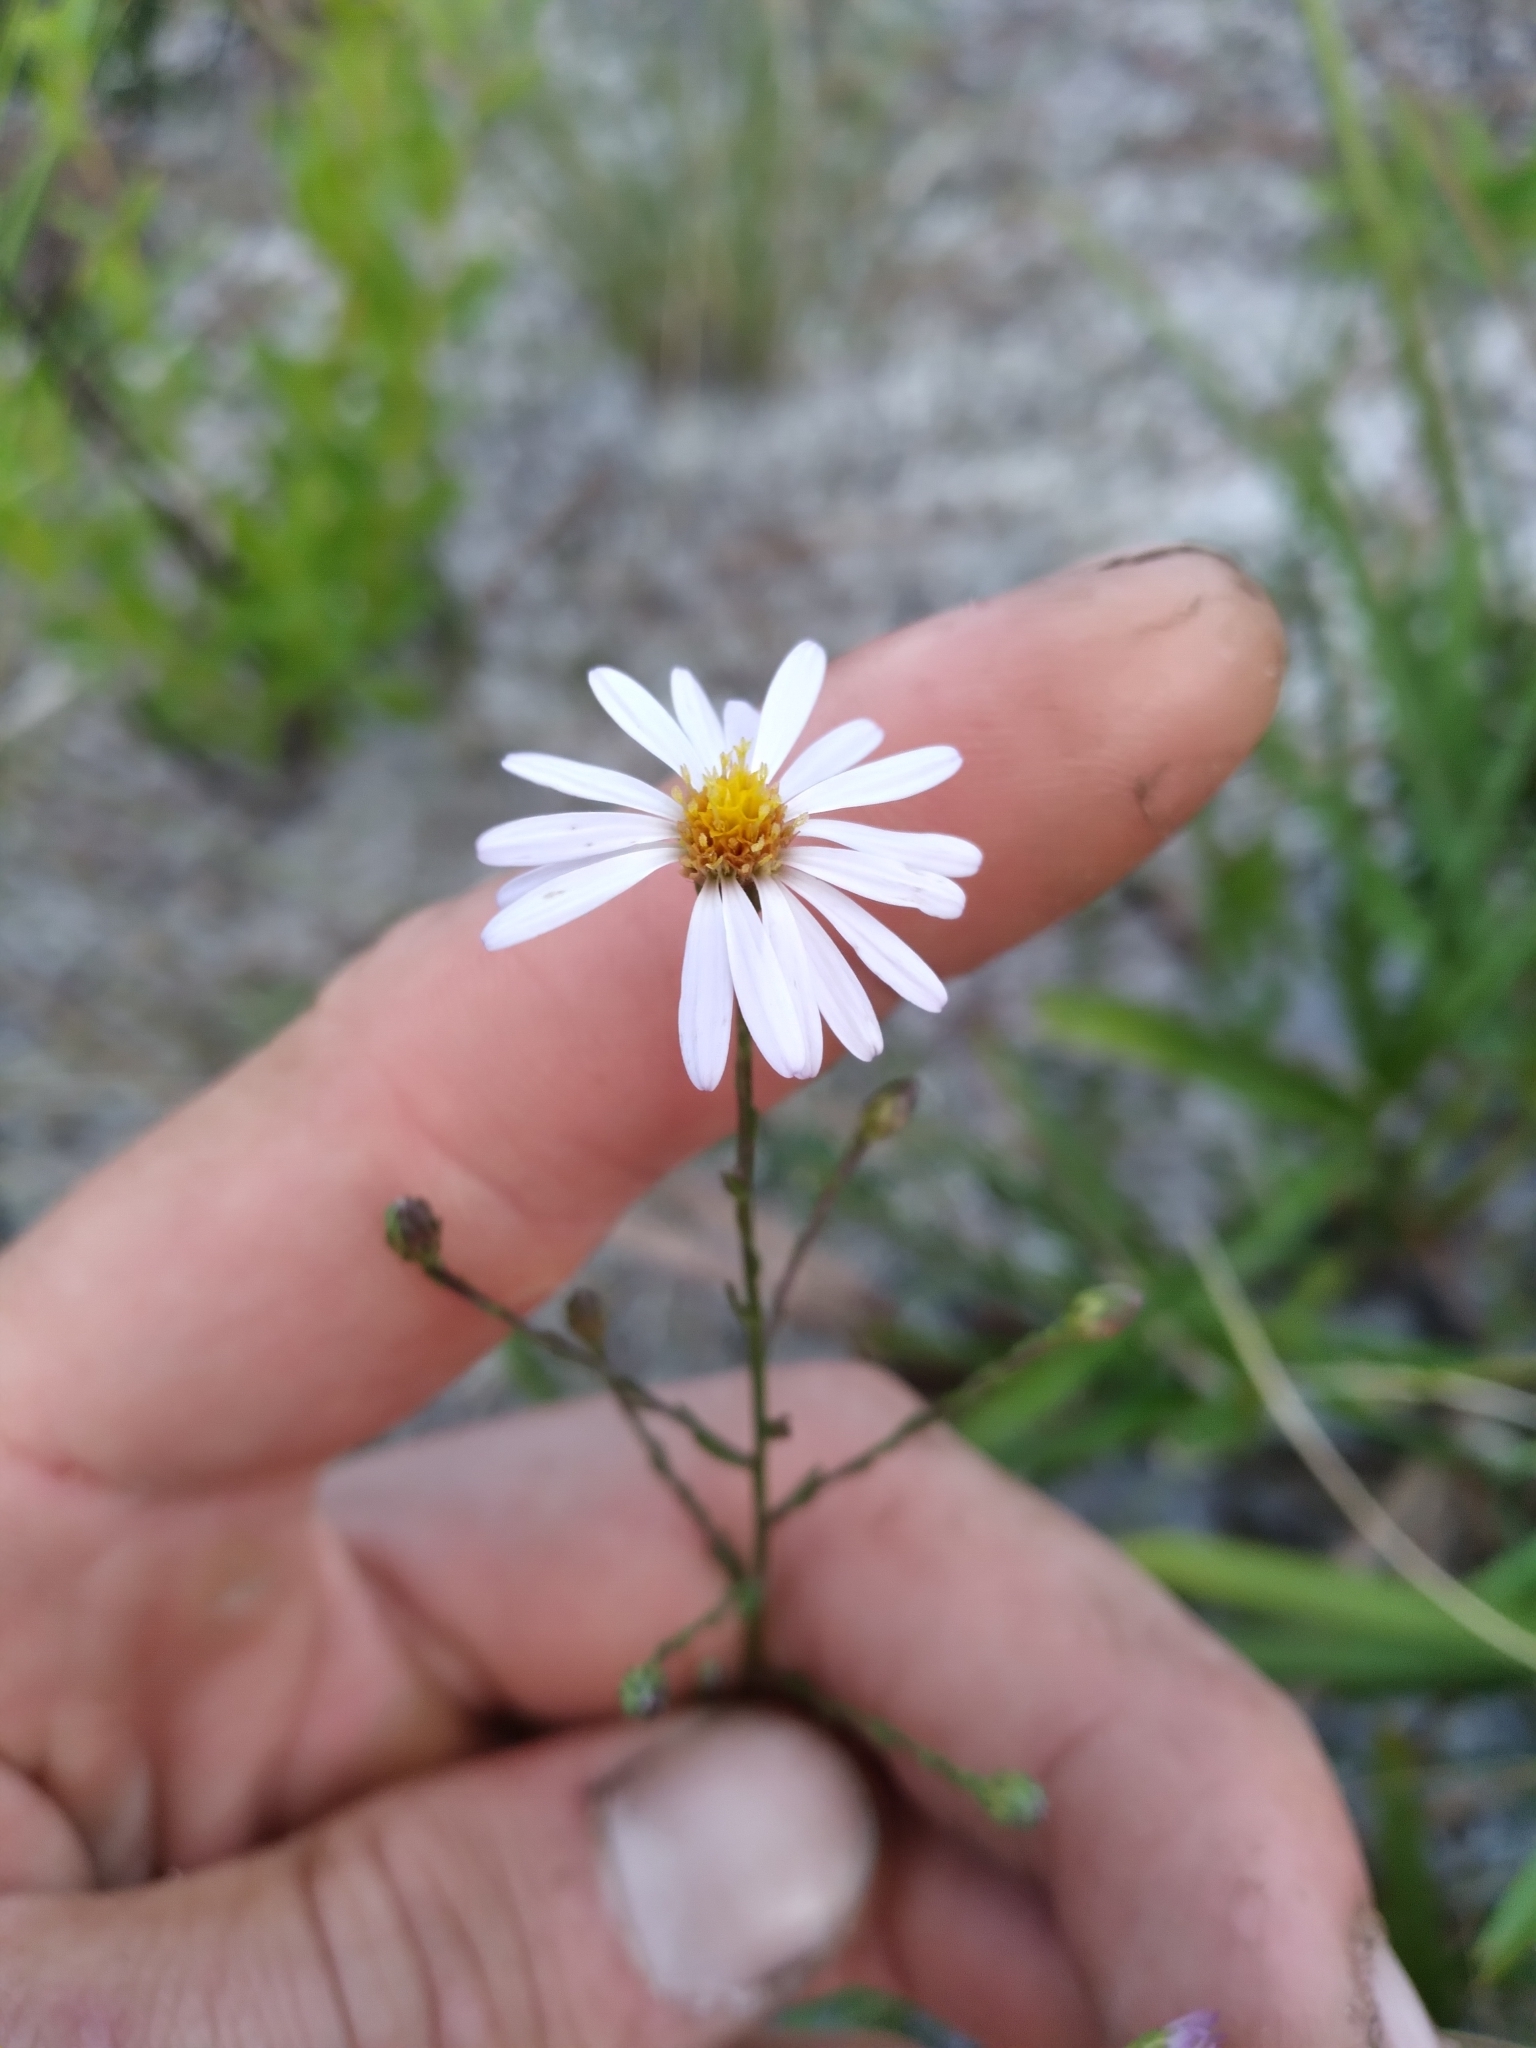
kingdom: Plantae
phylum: Tracheophyta
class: Magnoliopsida
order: Asterales
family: Asteraceae
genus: Symphyotrichum
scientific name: Symphyotrichum dumosum
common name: Bushy aster
